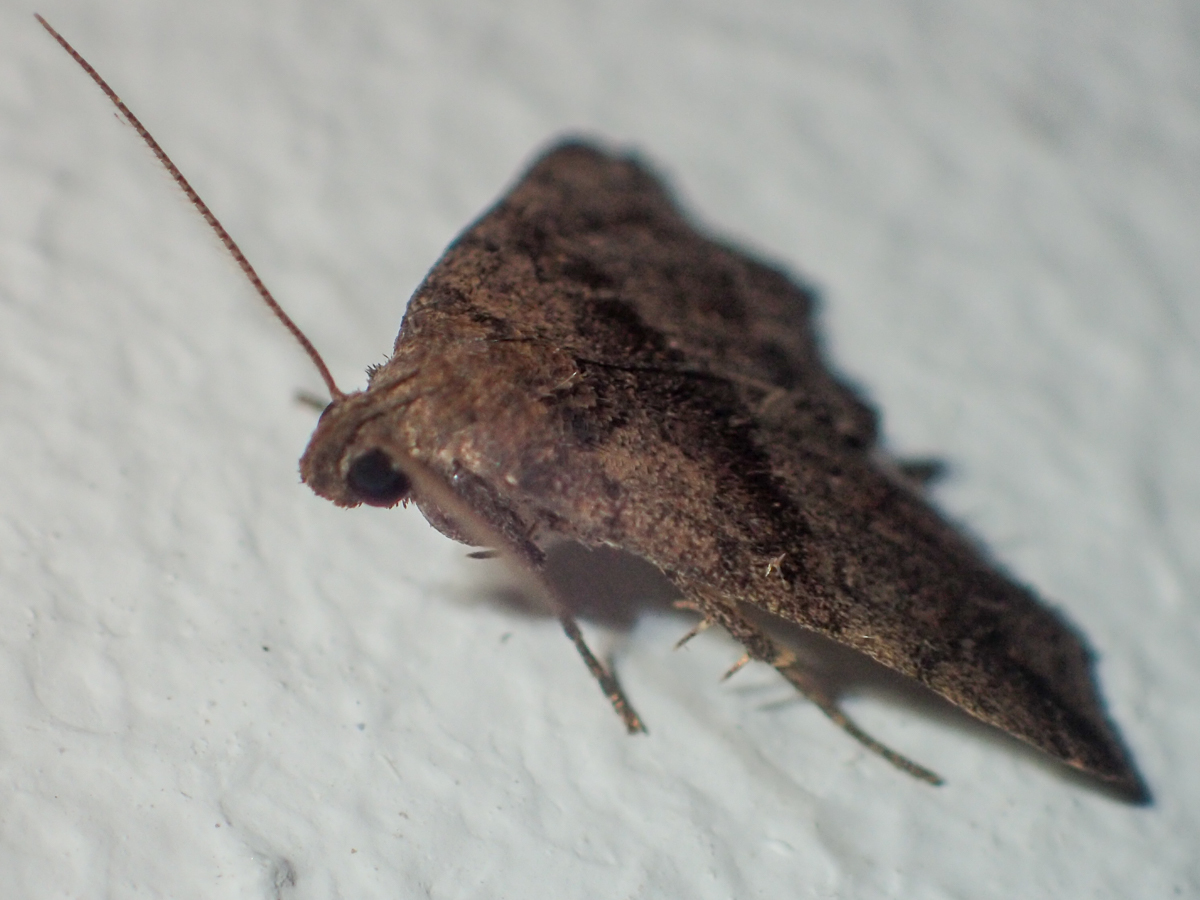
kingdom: Animalia
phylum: Arthropoda
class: Insecta
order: Lepidoptera
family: Erebidae
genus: Polypogon
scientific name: Polypogon Hipoepa fractalis
